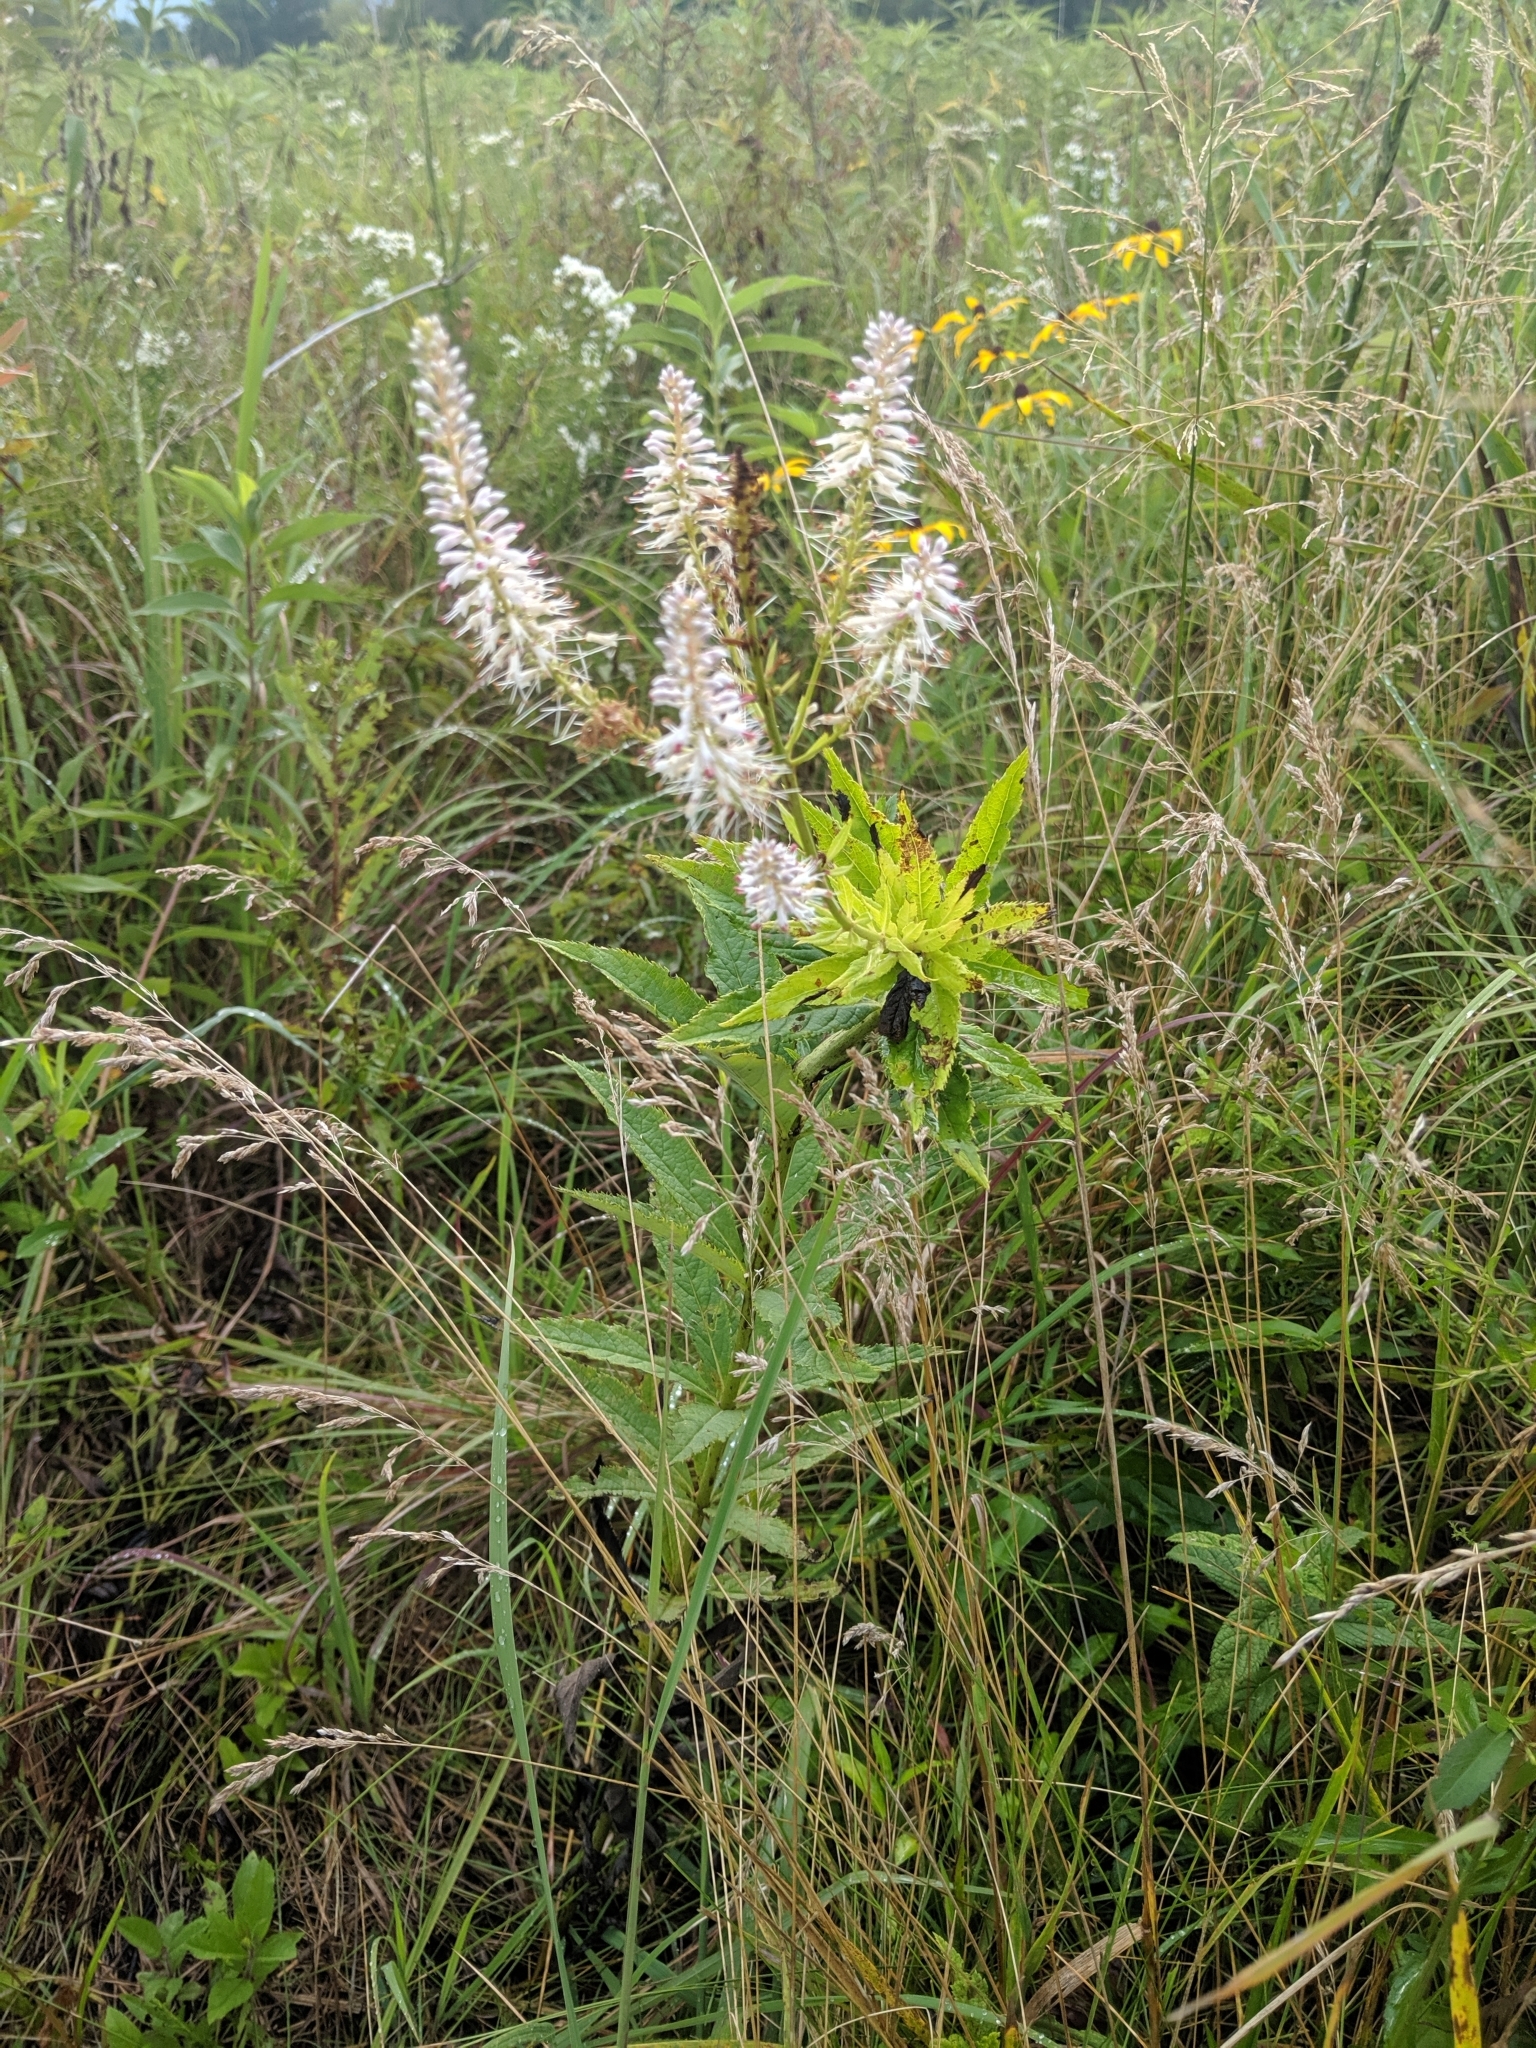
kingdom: Plantae
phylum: Tracheophyta
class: Magnoliopsida
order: Lamiales
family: Plantaginaceae
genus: Veronicastrum
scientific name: Veronicastrum virginicum
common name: Blackroot
